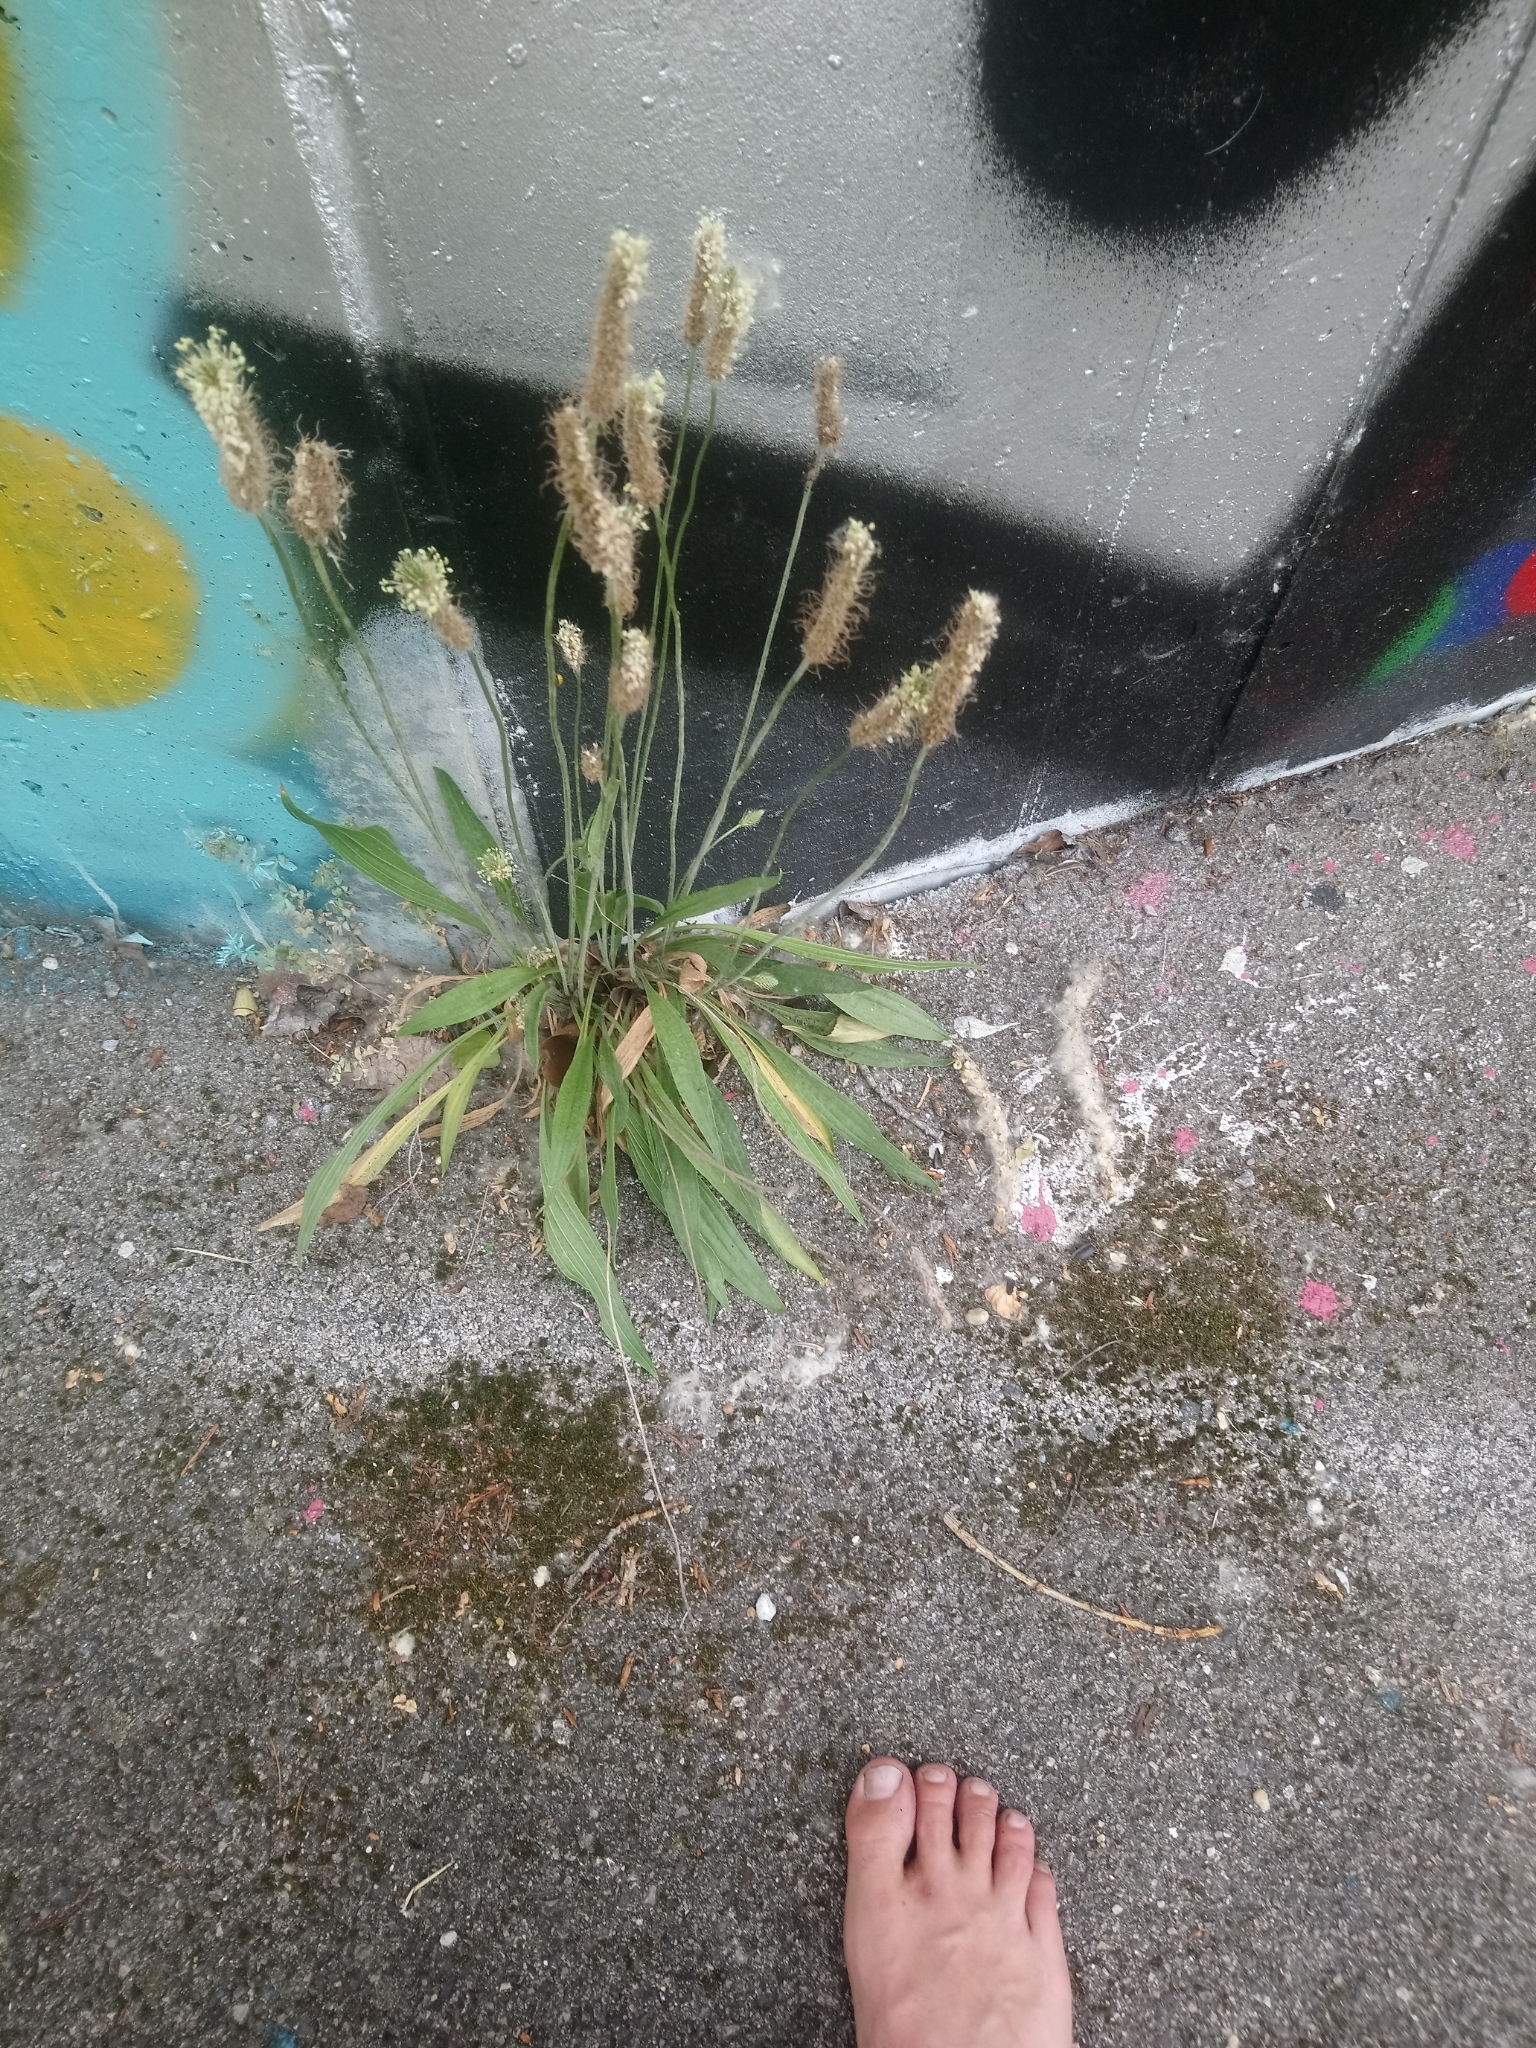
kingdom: Plantae
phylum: Tracheophyta
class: Magnoliopsida
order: Lamiales
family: Plantaginaceae
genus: Plantago
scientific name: Plantago lanceolata
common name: Ribwort plantain
